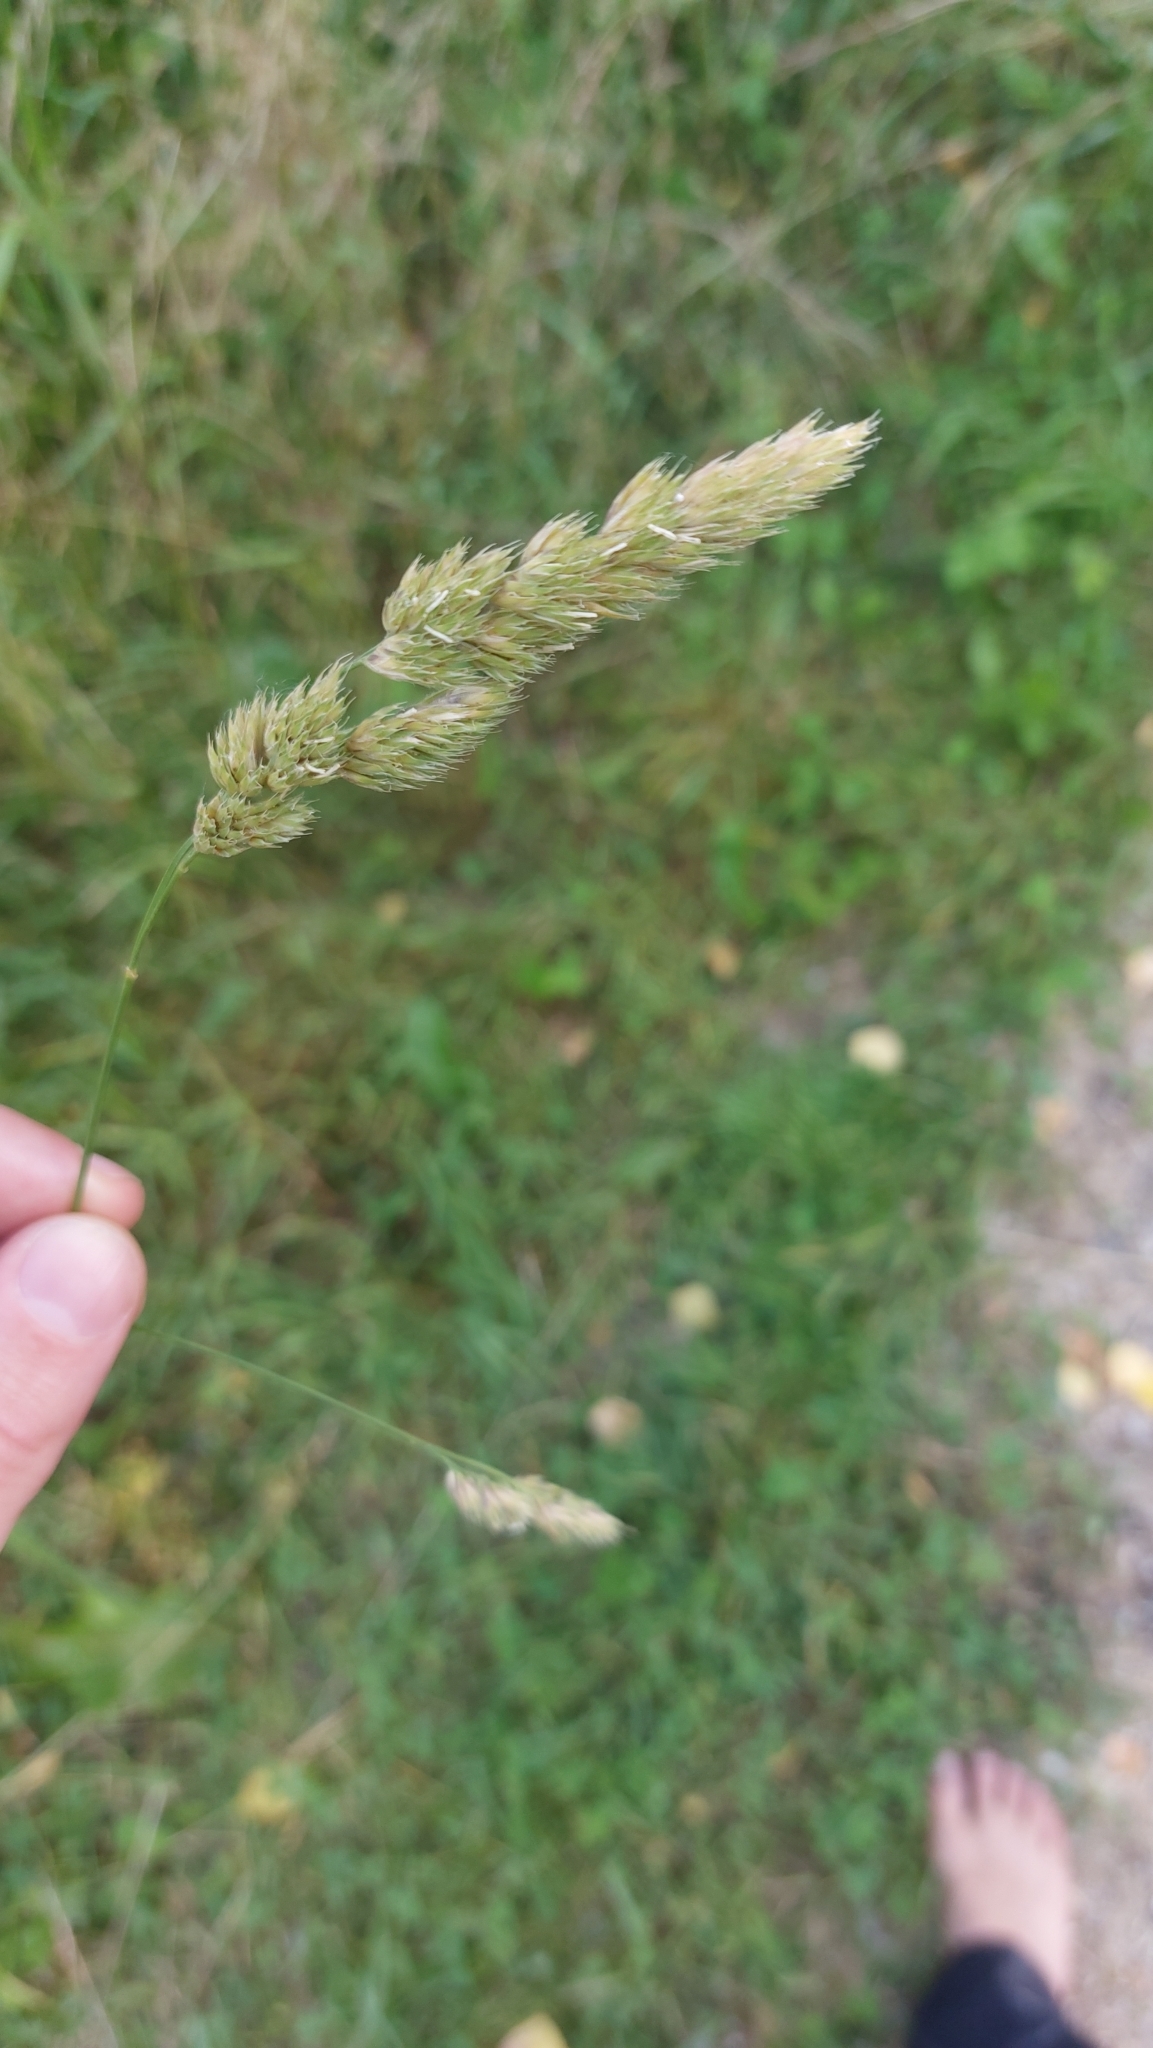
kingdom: Plantae
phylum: Tracheophyta
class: Liliopsida
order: Poales
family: Poaceae
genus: Dactylis
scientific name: Dactylis glomerata
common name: Orchardgrass
